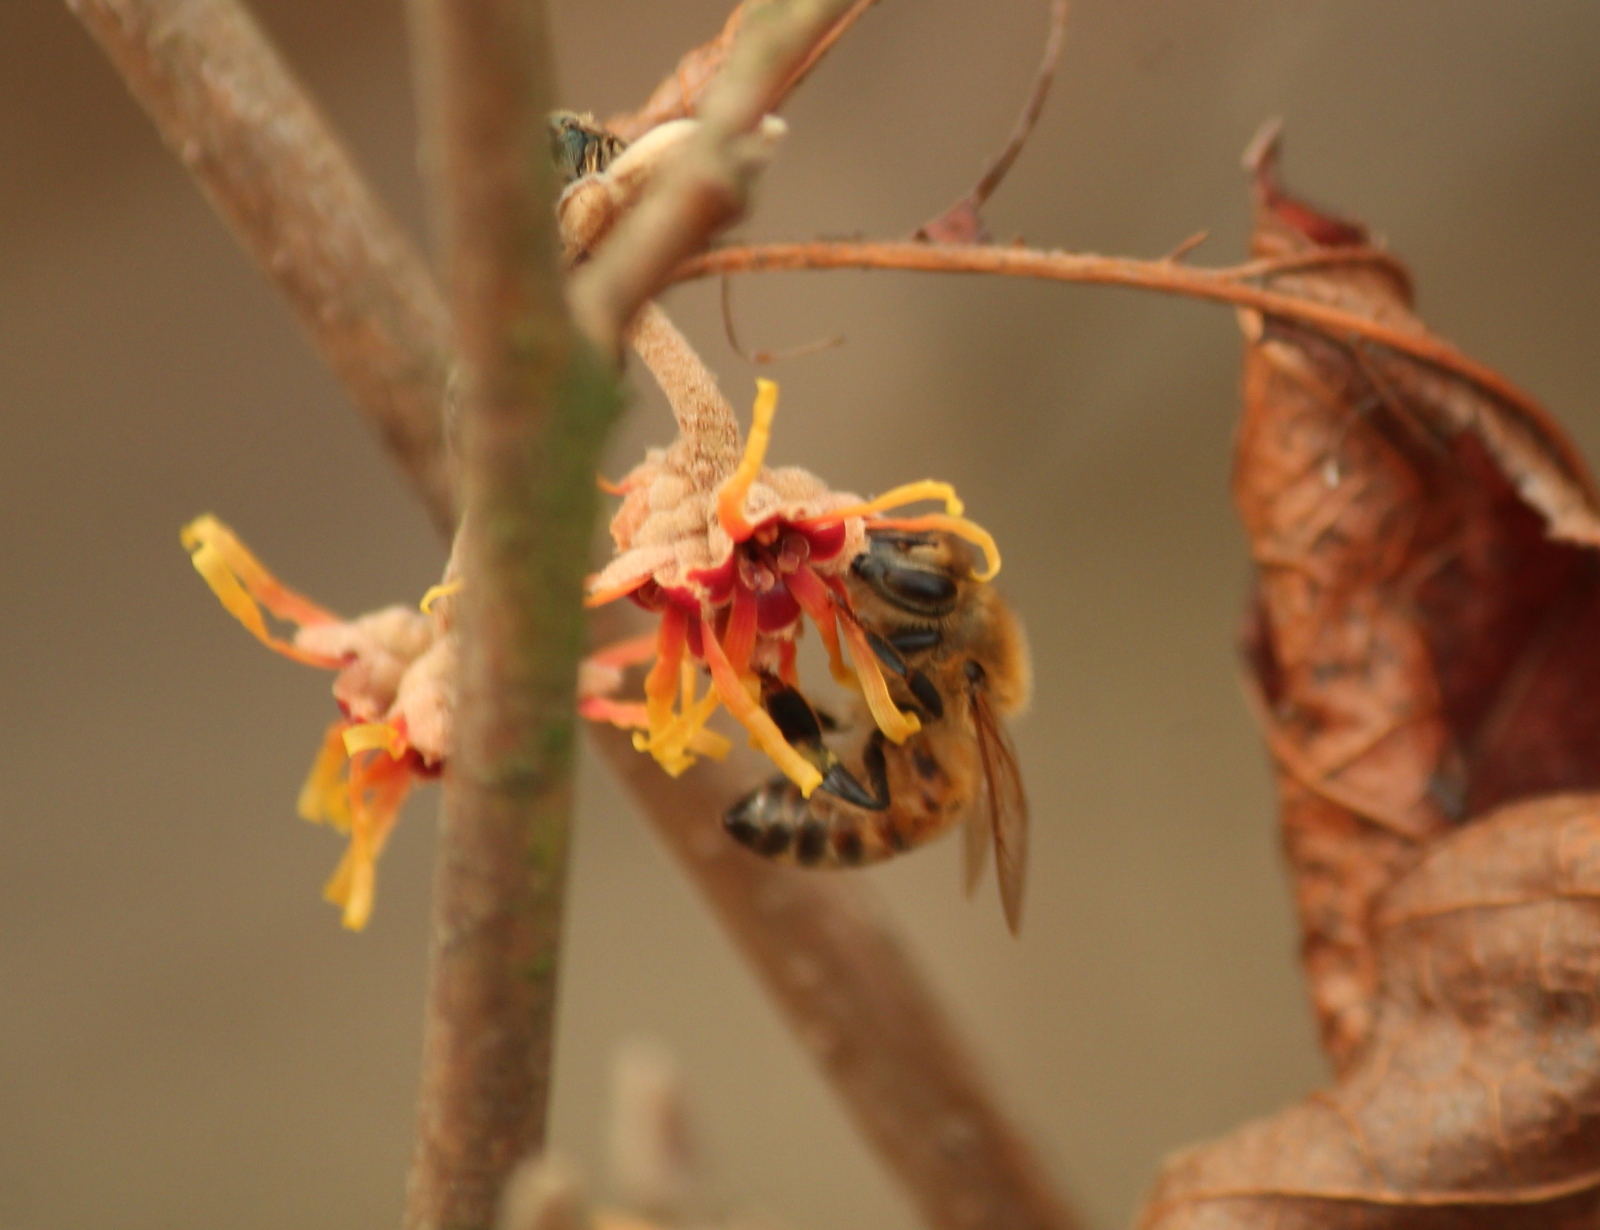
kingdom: Animalia
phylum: Arthropoda
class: Insecta
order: Hymenoptera
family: Apidae
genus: Apis
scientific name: Apis mellifera
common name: Honey bee
